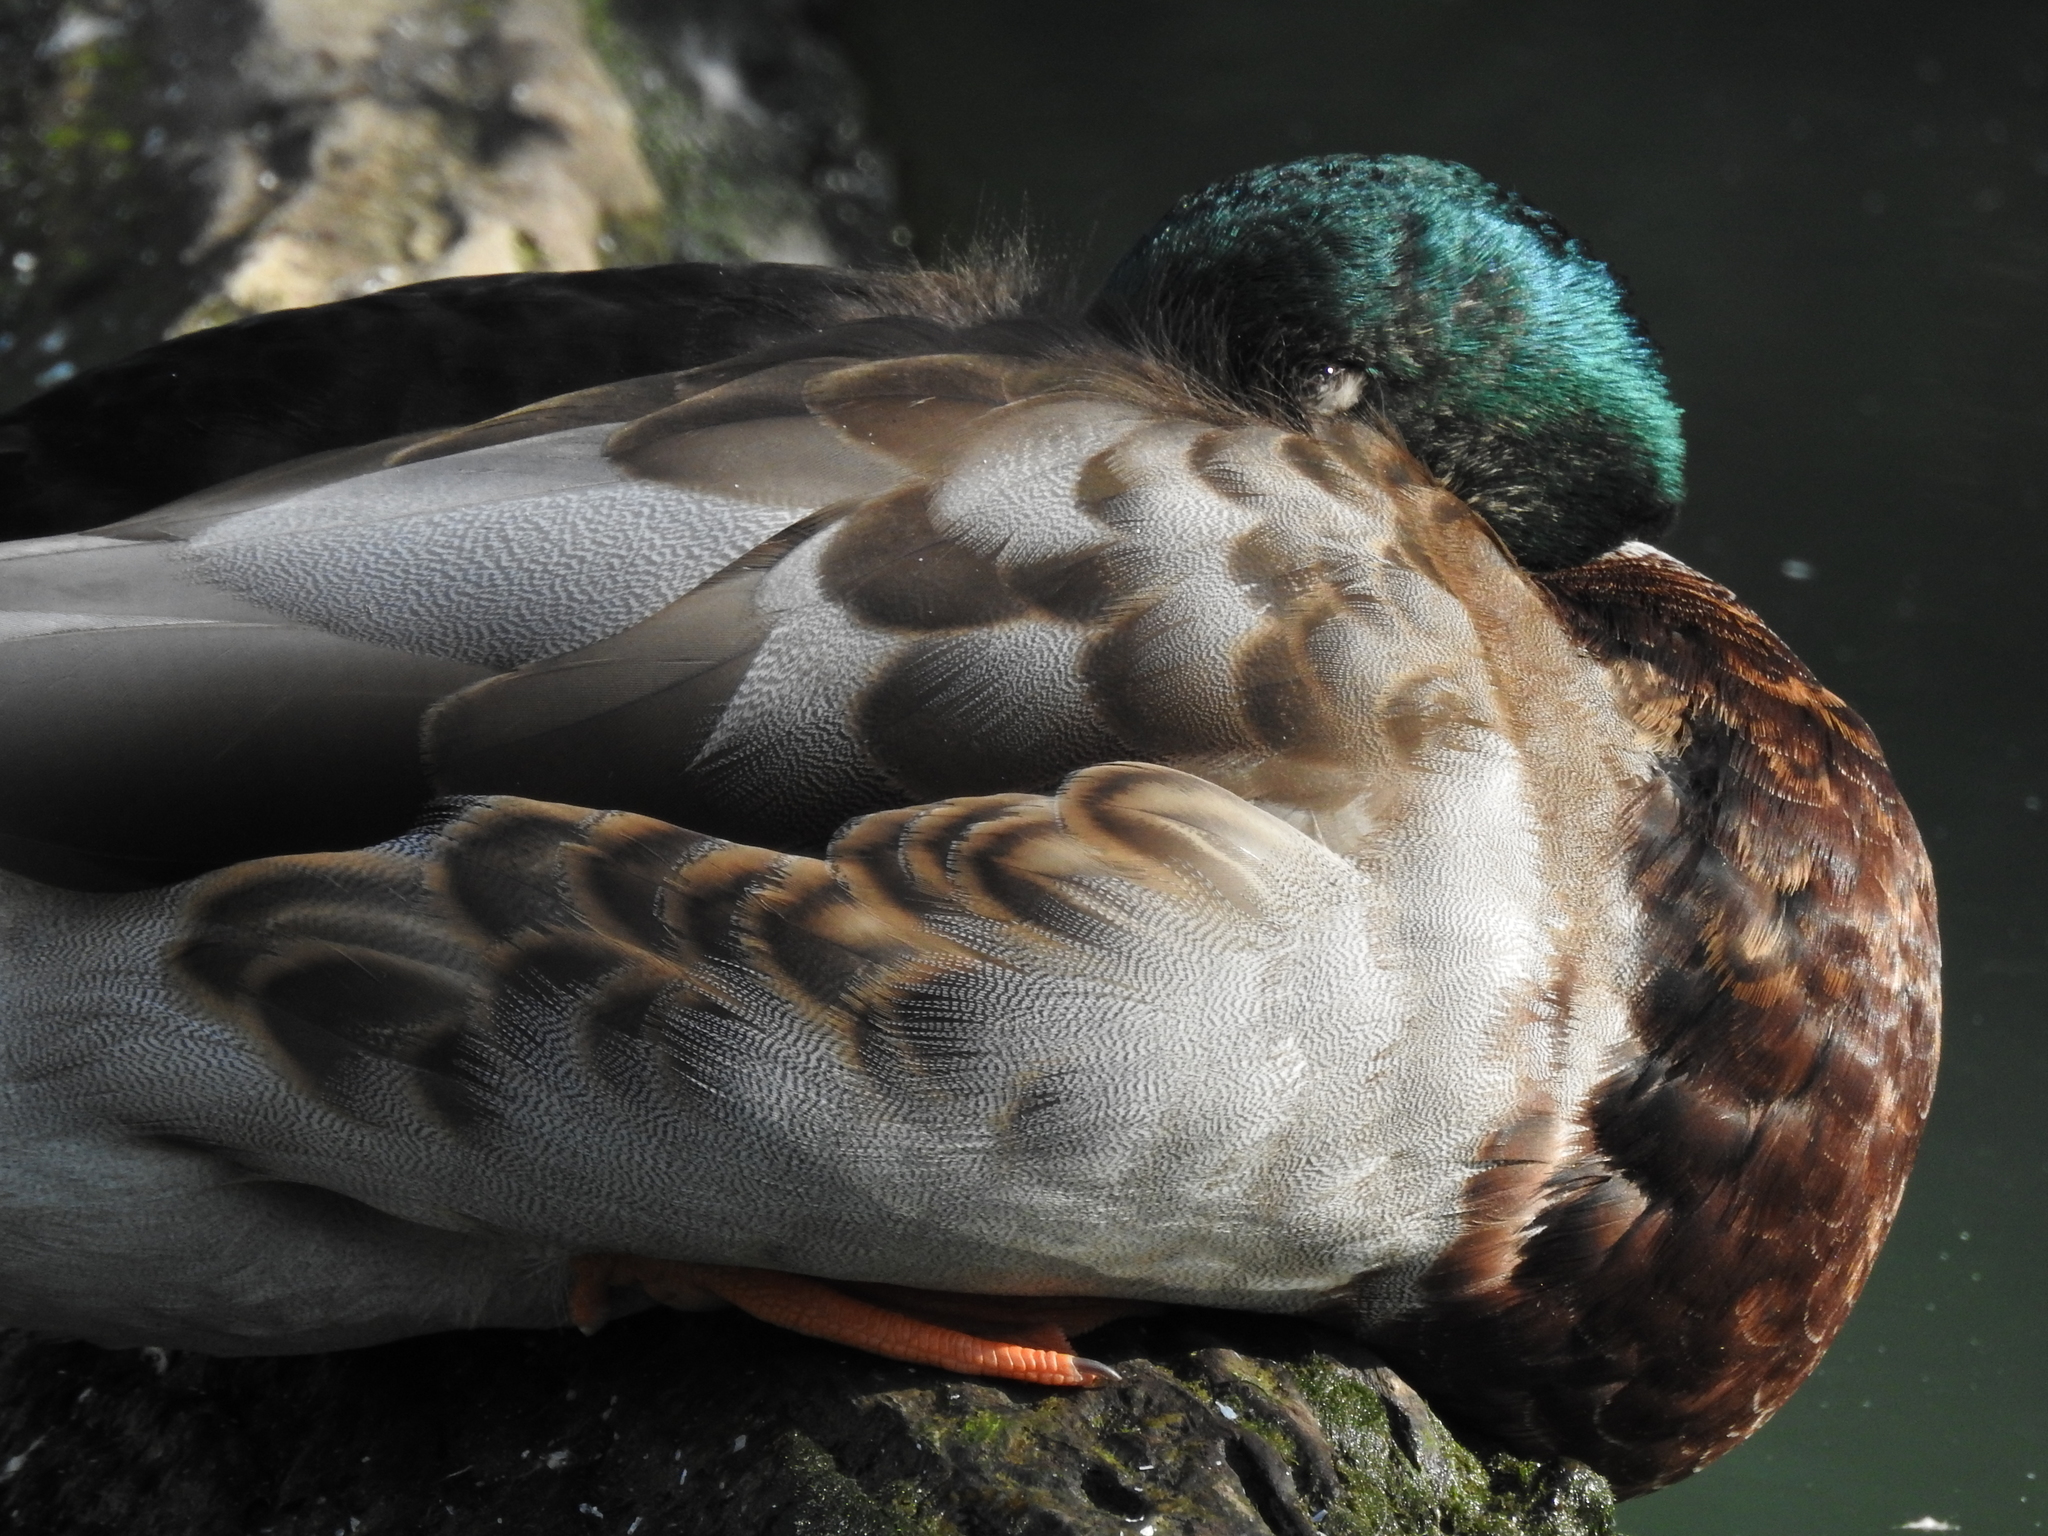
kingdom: Animalia
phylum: Chordata
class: Aves
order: Anseriformes
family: Anatidae
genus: Anas
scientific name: Anas platyrhynchos
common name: Mallard
